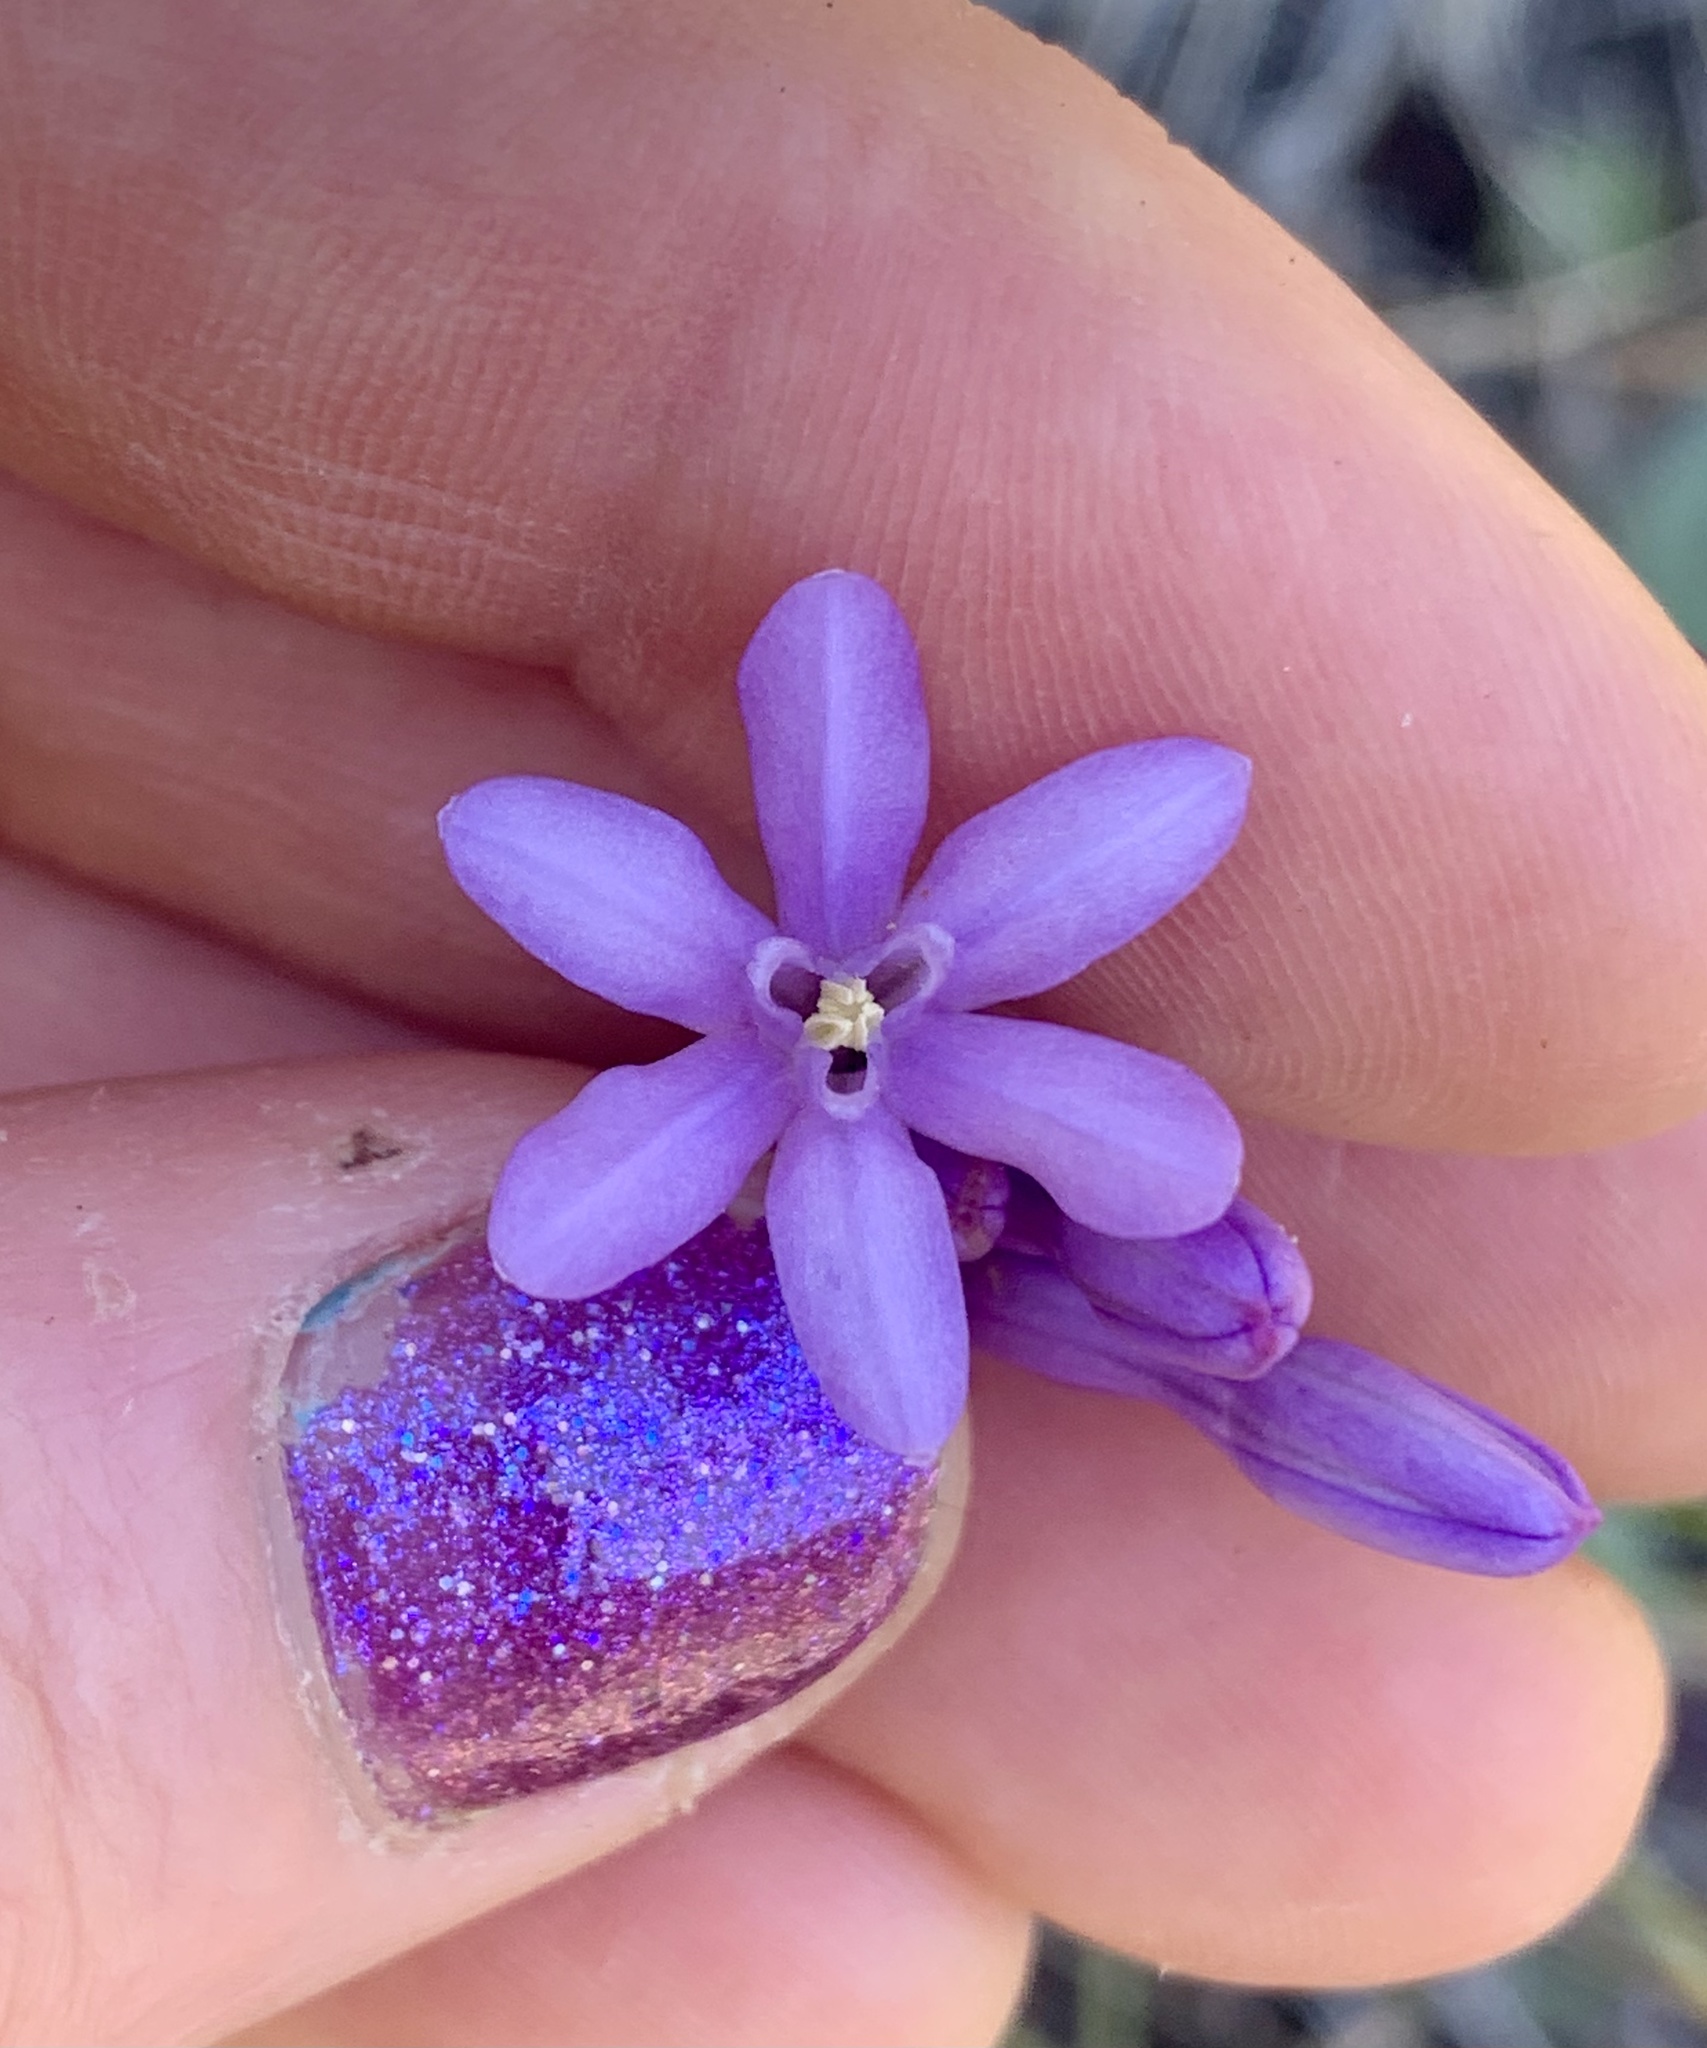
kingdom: Plantae
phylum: Tracheophyta
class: Liliopsida
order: Asparagales
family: Asparagaceae
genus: Dichelostemma
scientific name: Dichelostemma multiflorum
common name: Round-tooth ookow
